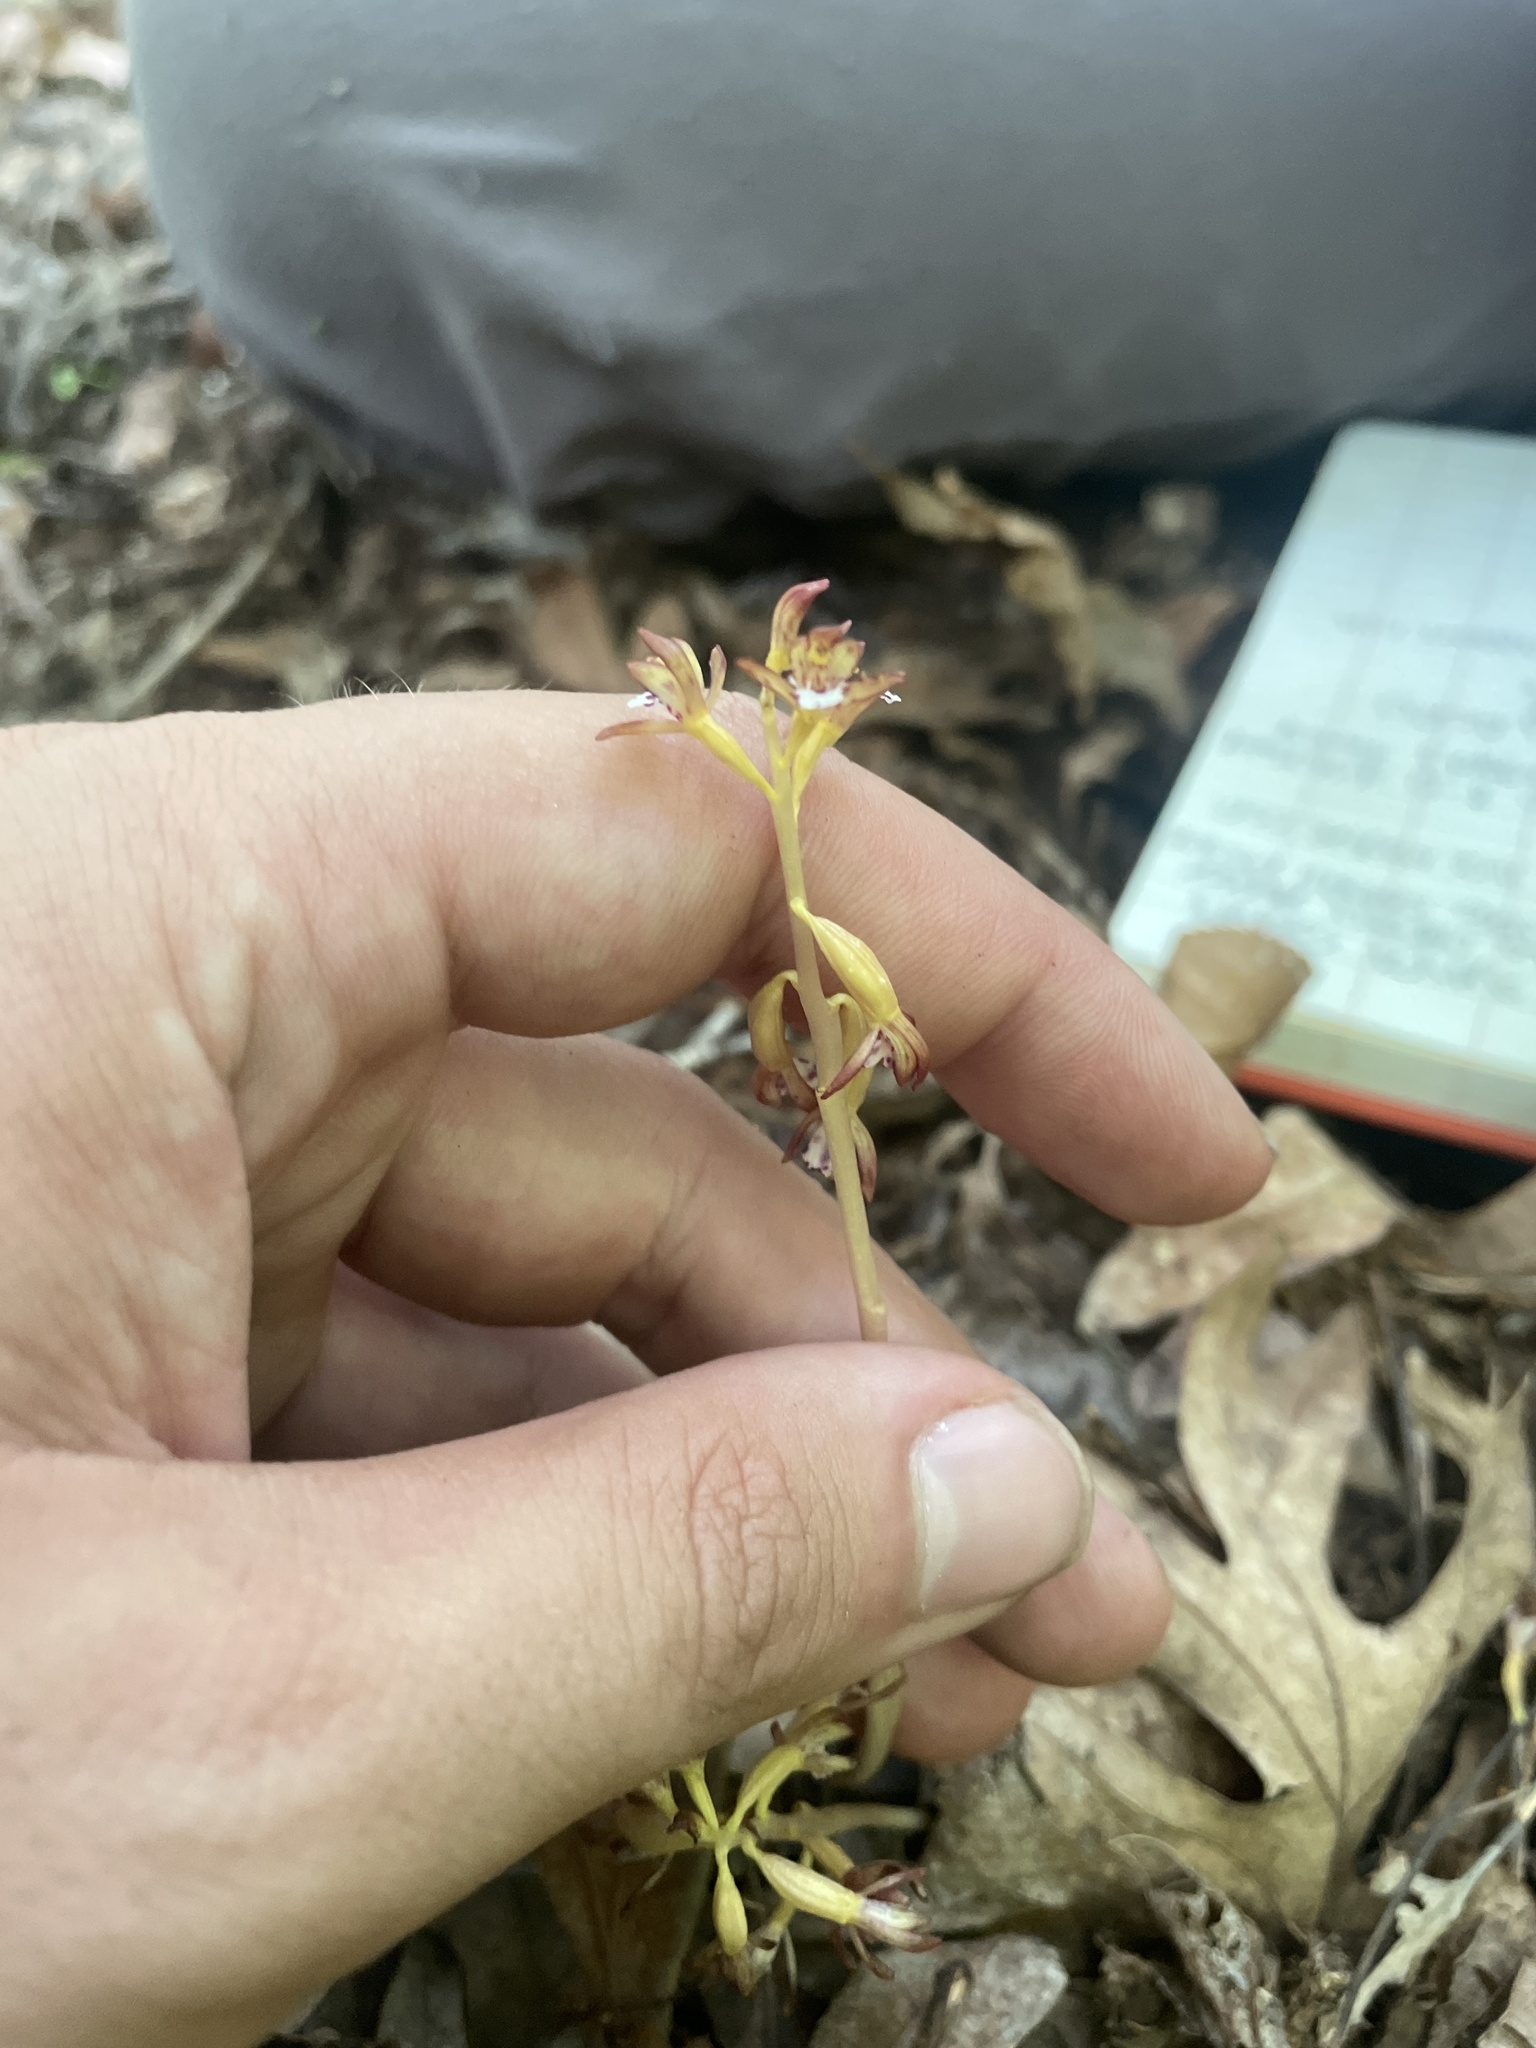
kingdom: Plantae
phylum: Tracheophyta
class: Liliopsida
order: Asparagales
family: Orchidaceae
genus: Corallorhiza
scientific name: Corallorhiza maculata
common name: Spotted coralroot
